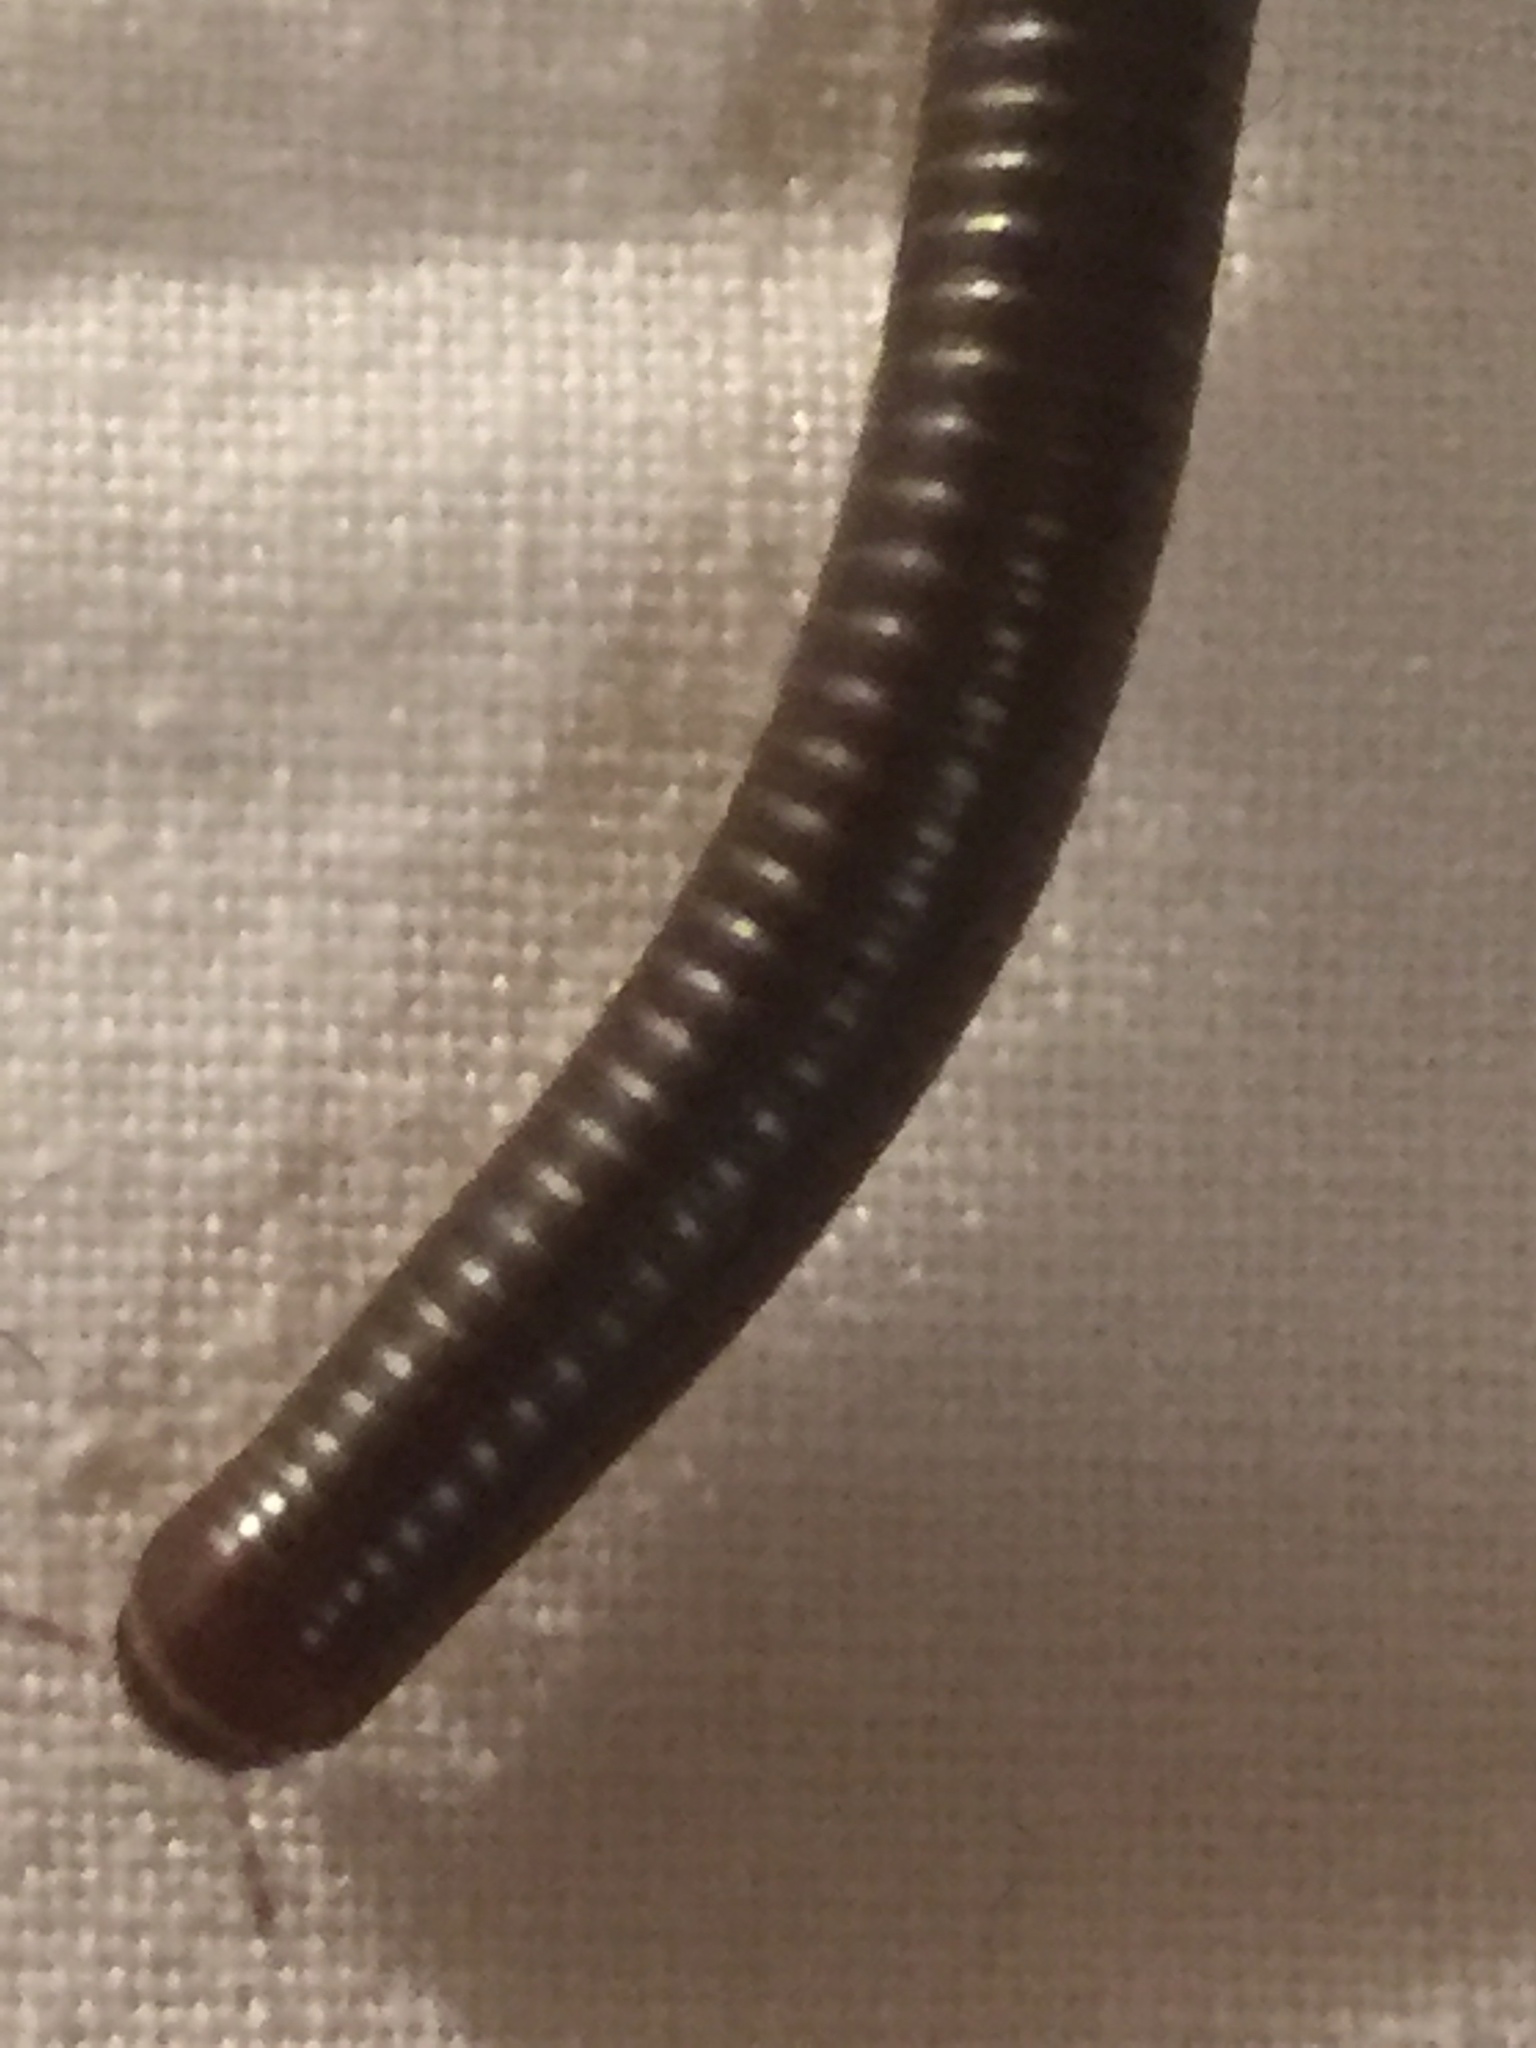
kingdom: Animalia
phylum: Arthropoda
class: Diplopoda
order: Julida
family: Julidae
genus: Pachyiulus
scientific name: Pachyiulus flavipes
